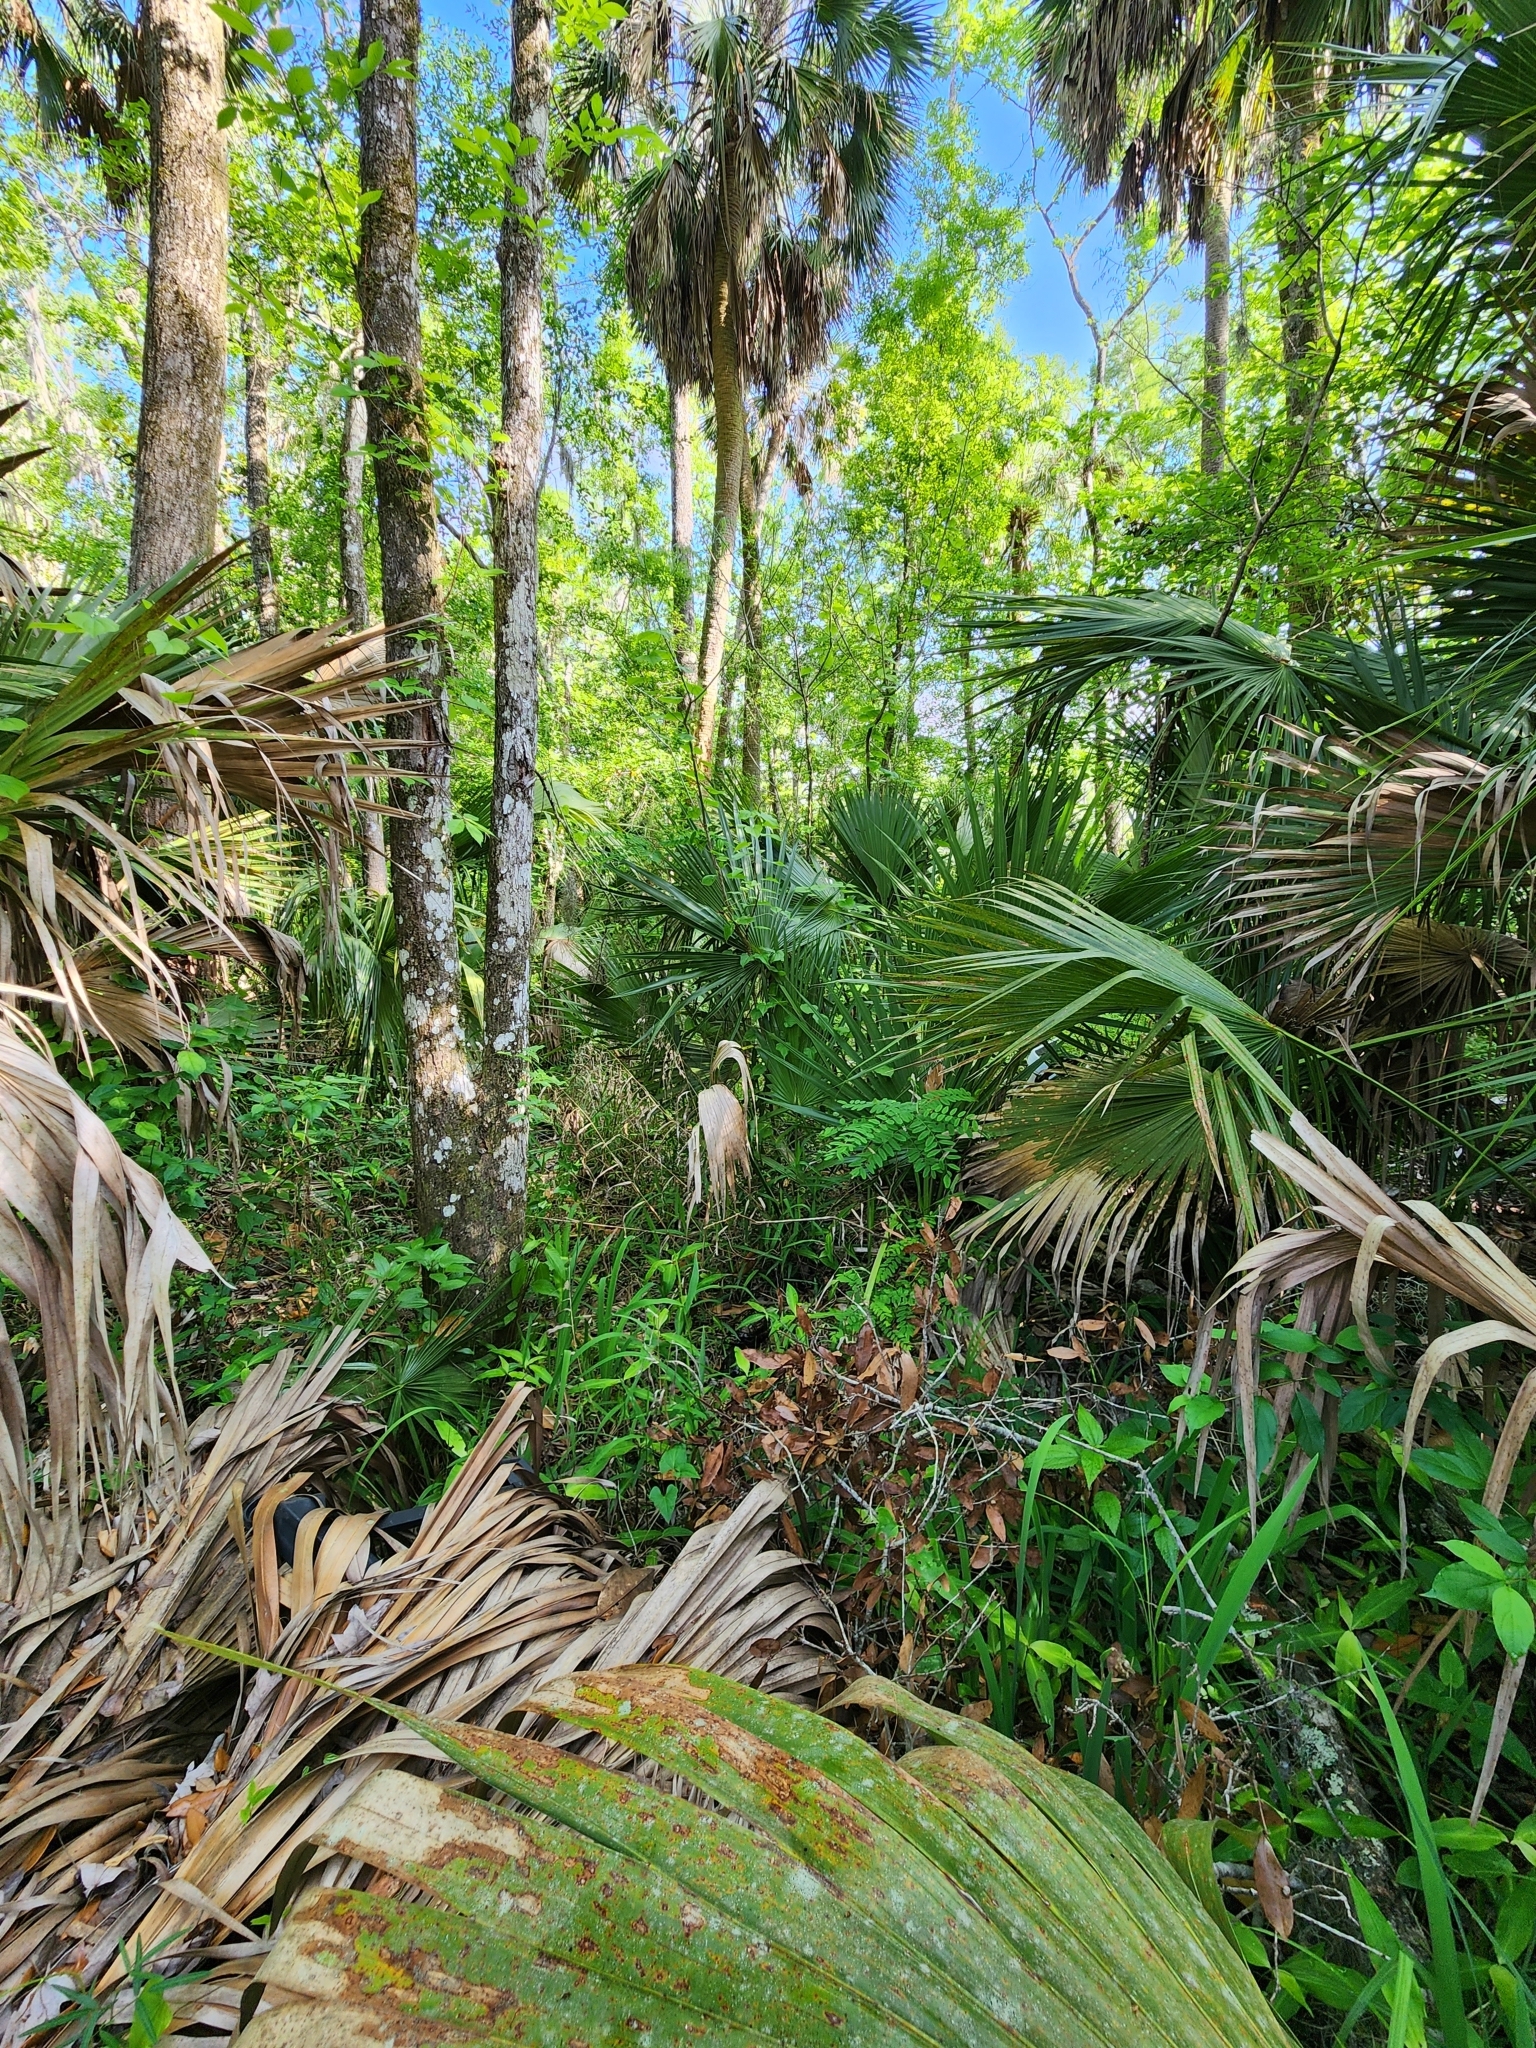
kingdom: Animalia
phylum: Chordata
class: Testudines
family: Emydidae
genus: Terrapene
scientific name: Terrapene carolina
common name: Common box turtle
